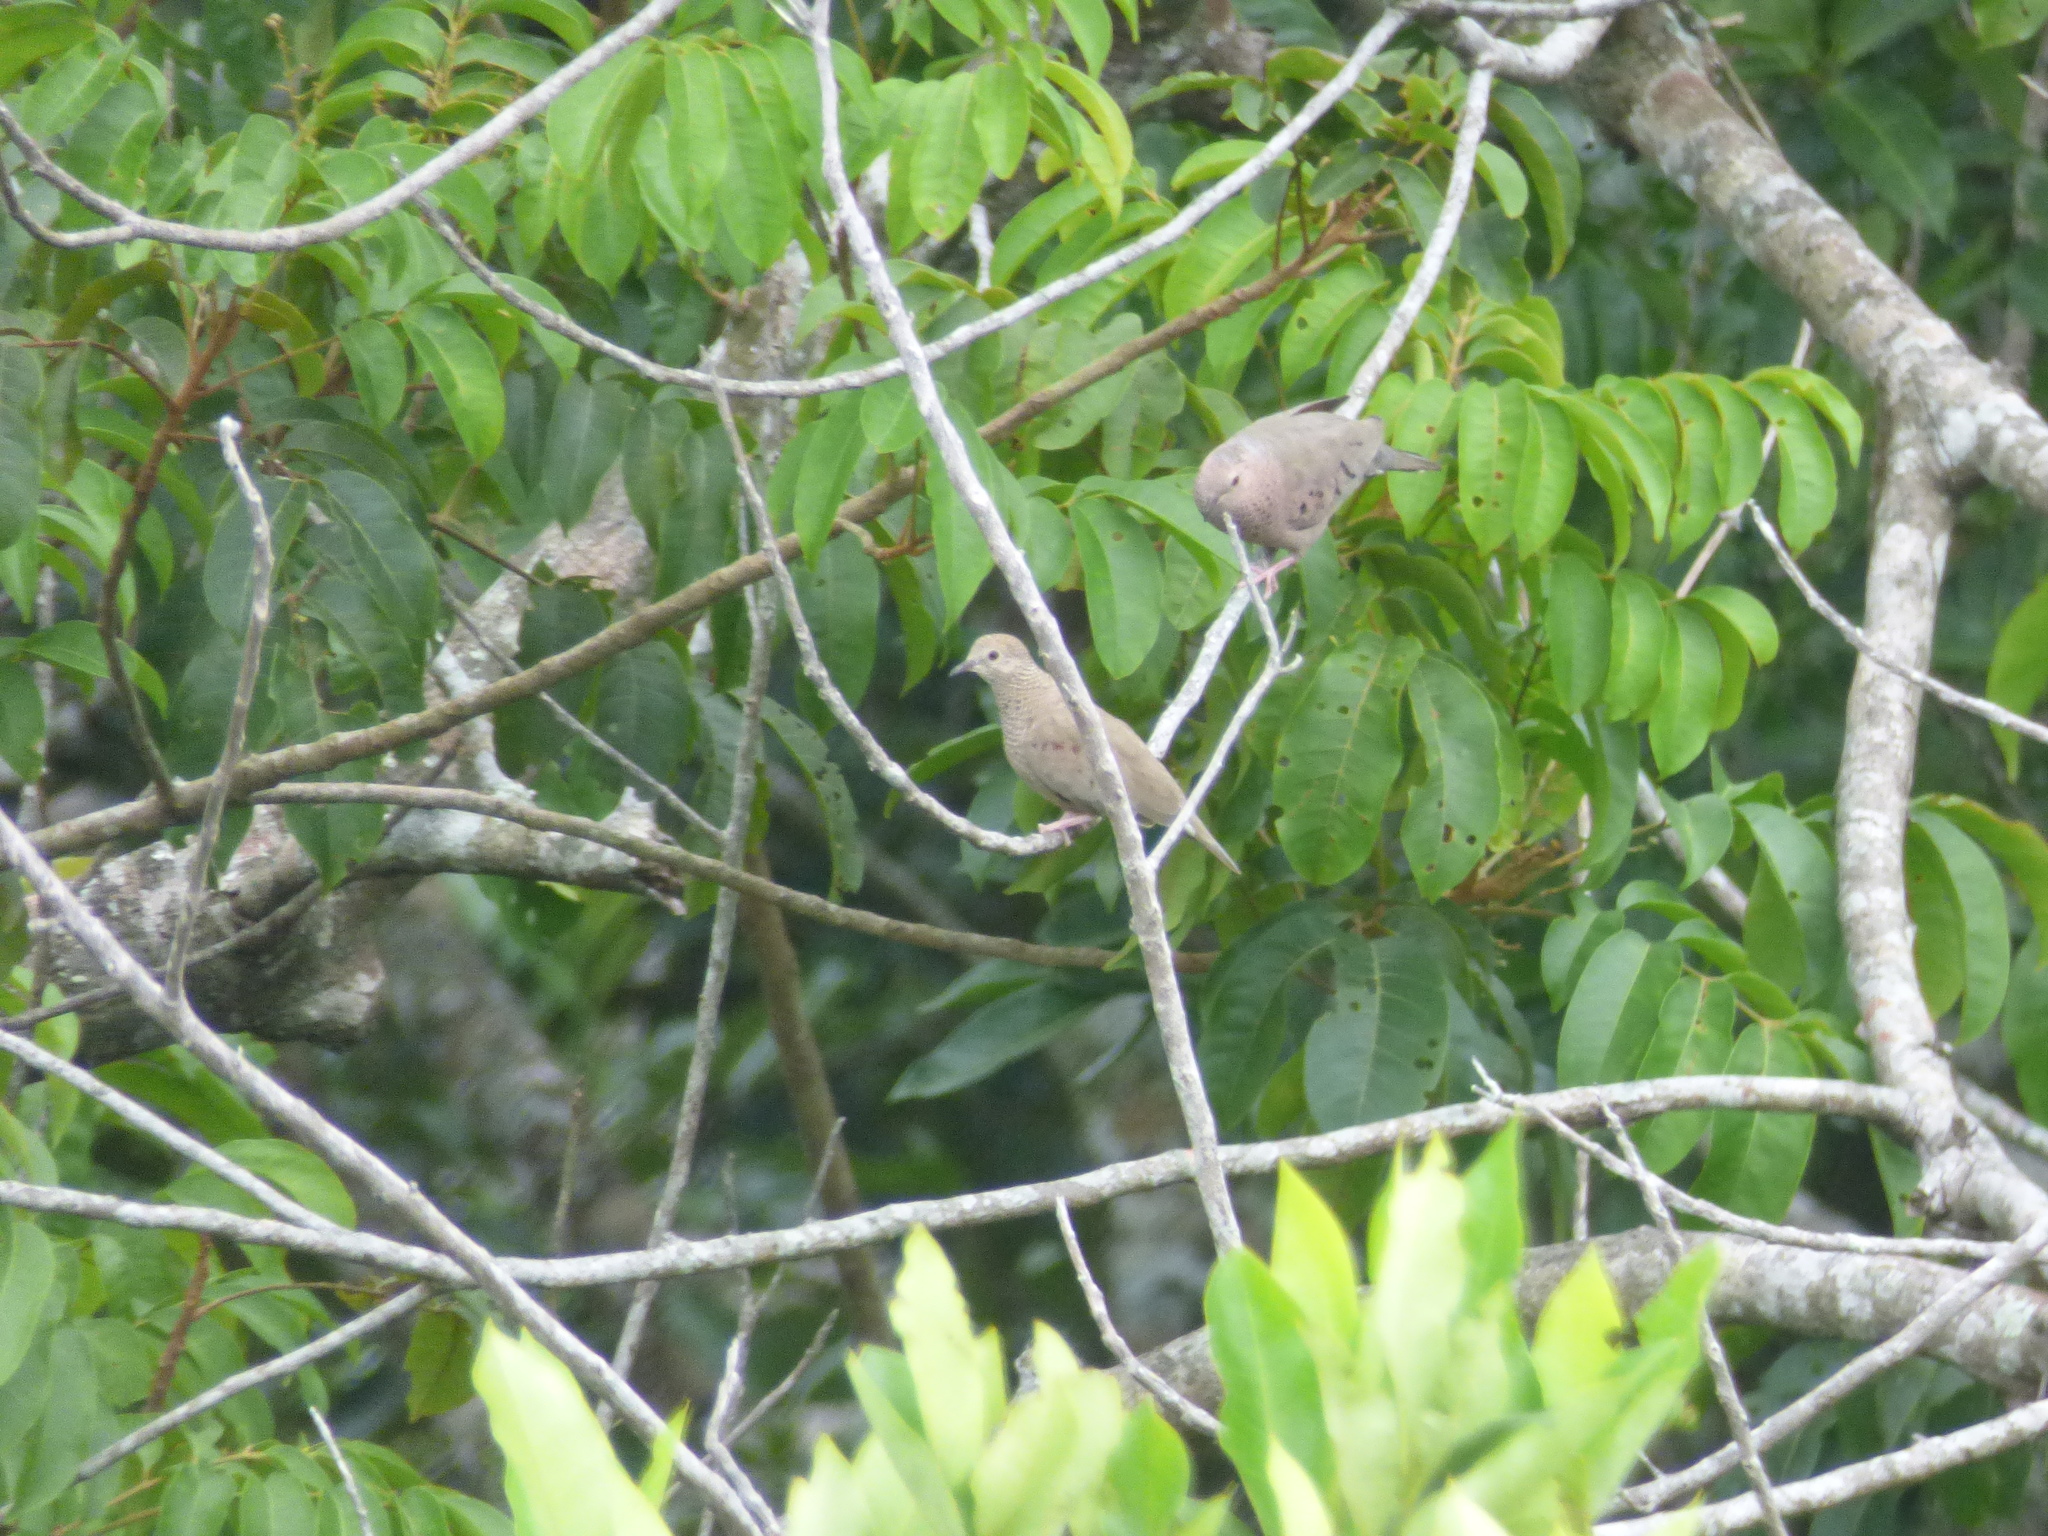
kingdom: Animalia
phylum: Chordata
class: Aves
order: Columbiformes
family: Columbidae
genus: Columbina
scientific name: Columbina passerina
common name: Common ground-dove
